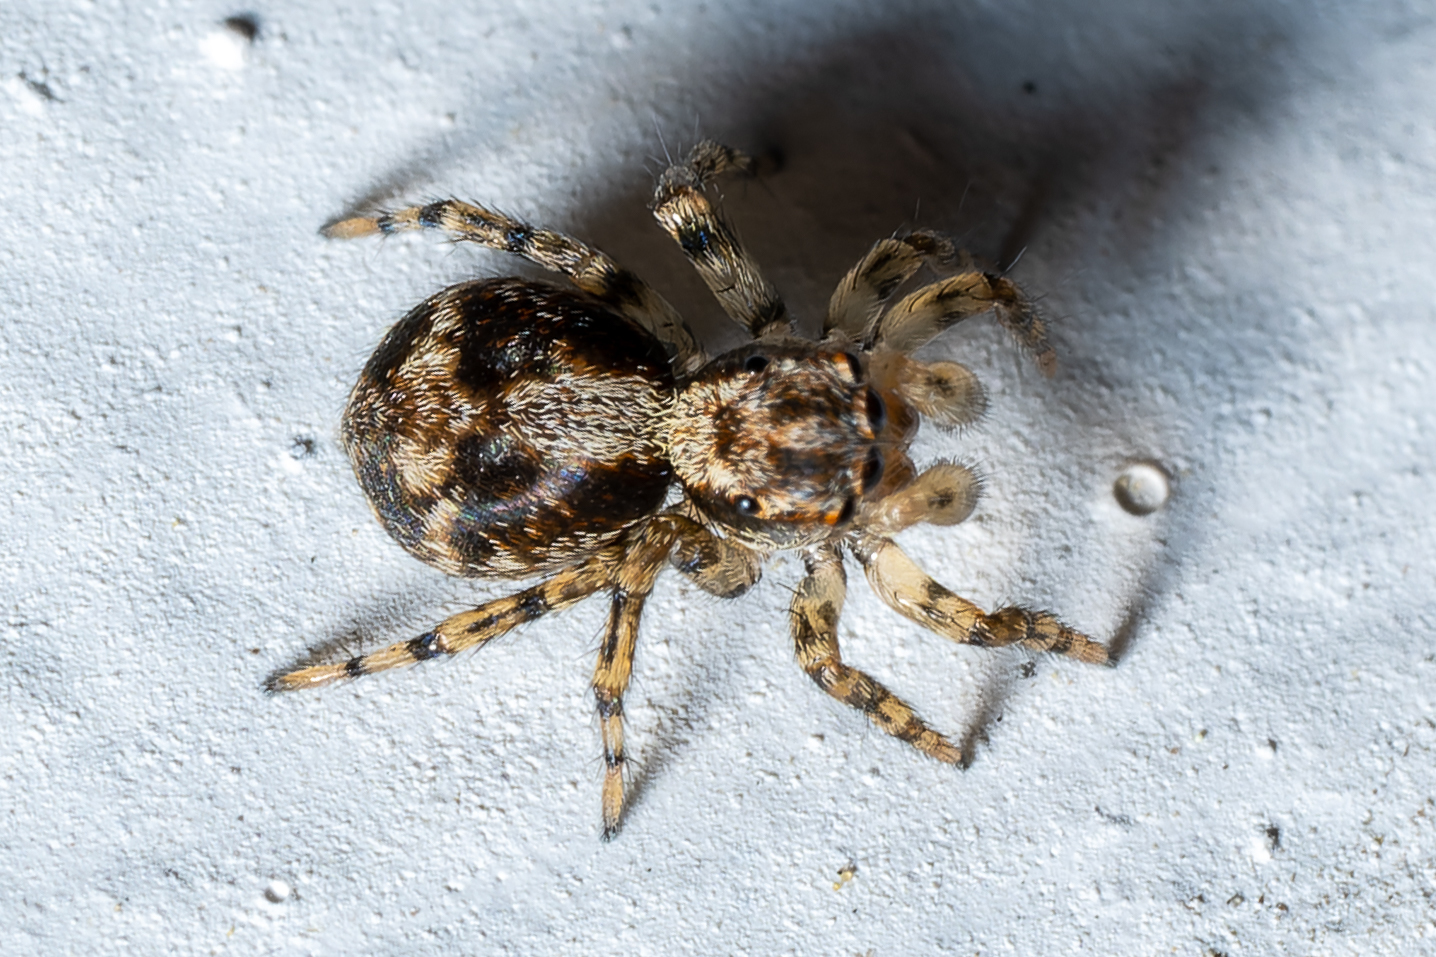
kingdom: Animalia
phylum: Arthropoda
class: Arachnida
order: Araneae
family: Salticidae
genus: Naphrys
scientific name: Naphrys pulex
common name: Flea jumping spider
